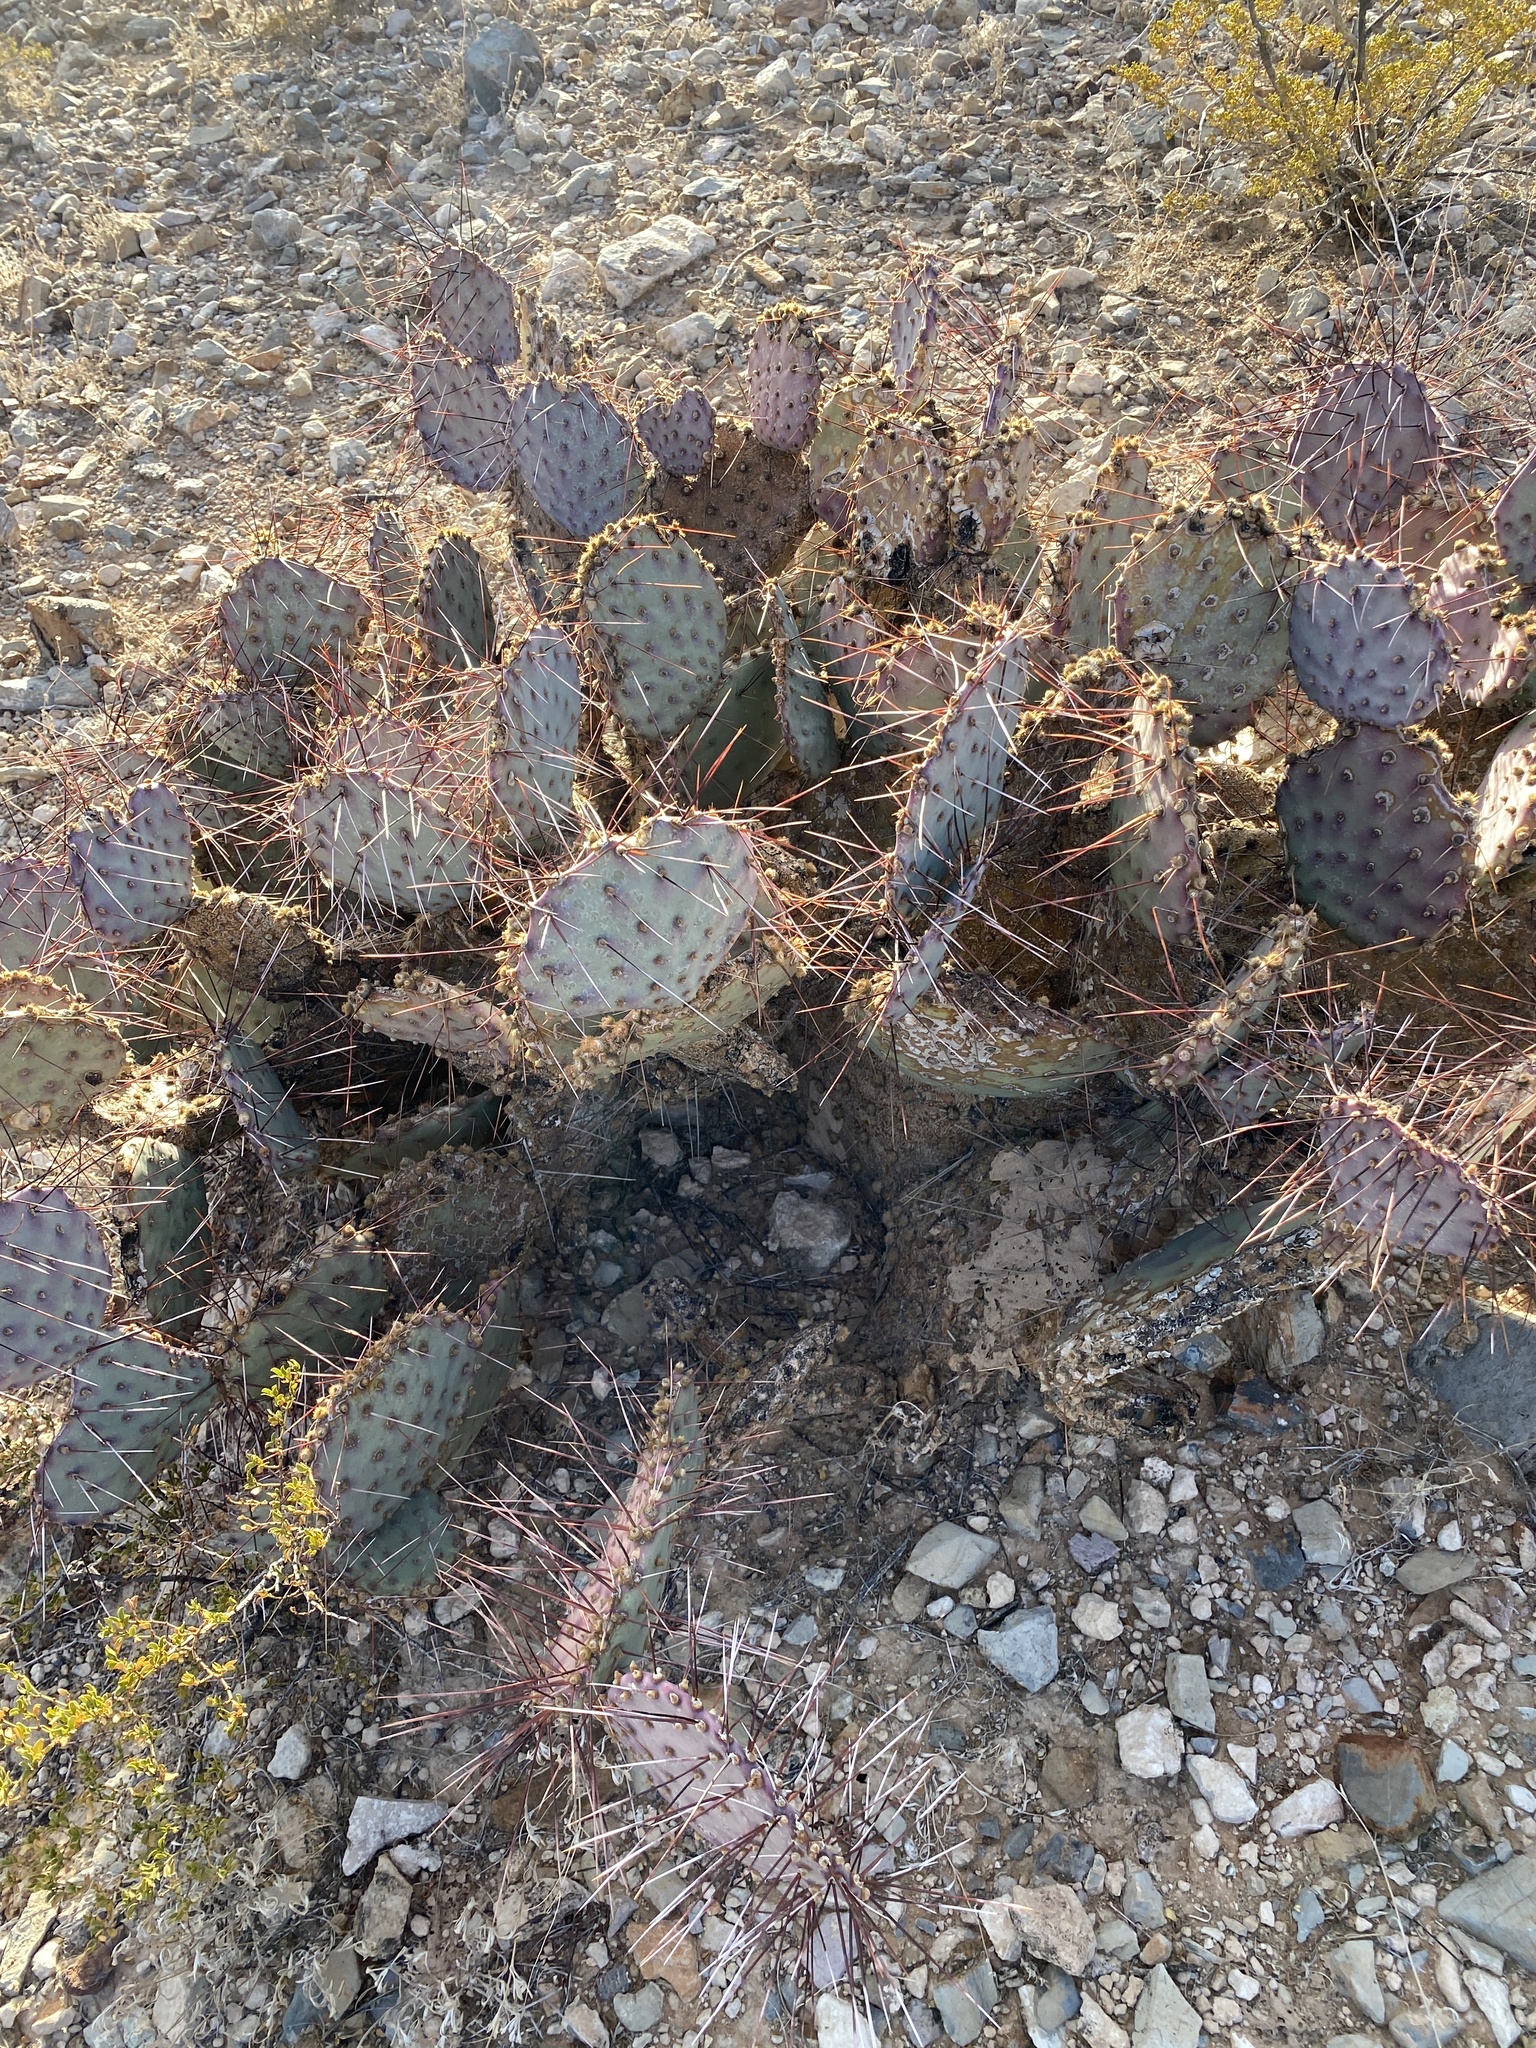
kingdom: Plantae
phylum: Tracheophyta
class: Magnoliopsida
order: Caryophyllales
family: Cactaceae
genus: Opuntia
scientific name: Opuntia macrocentra
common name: Purple prickly-pear
